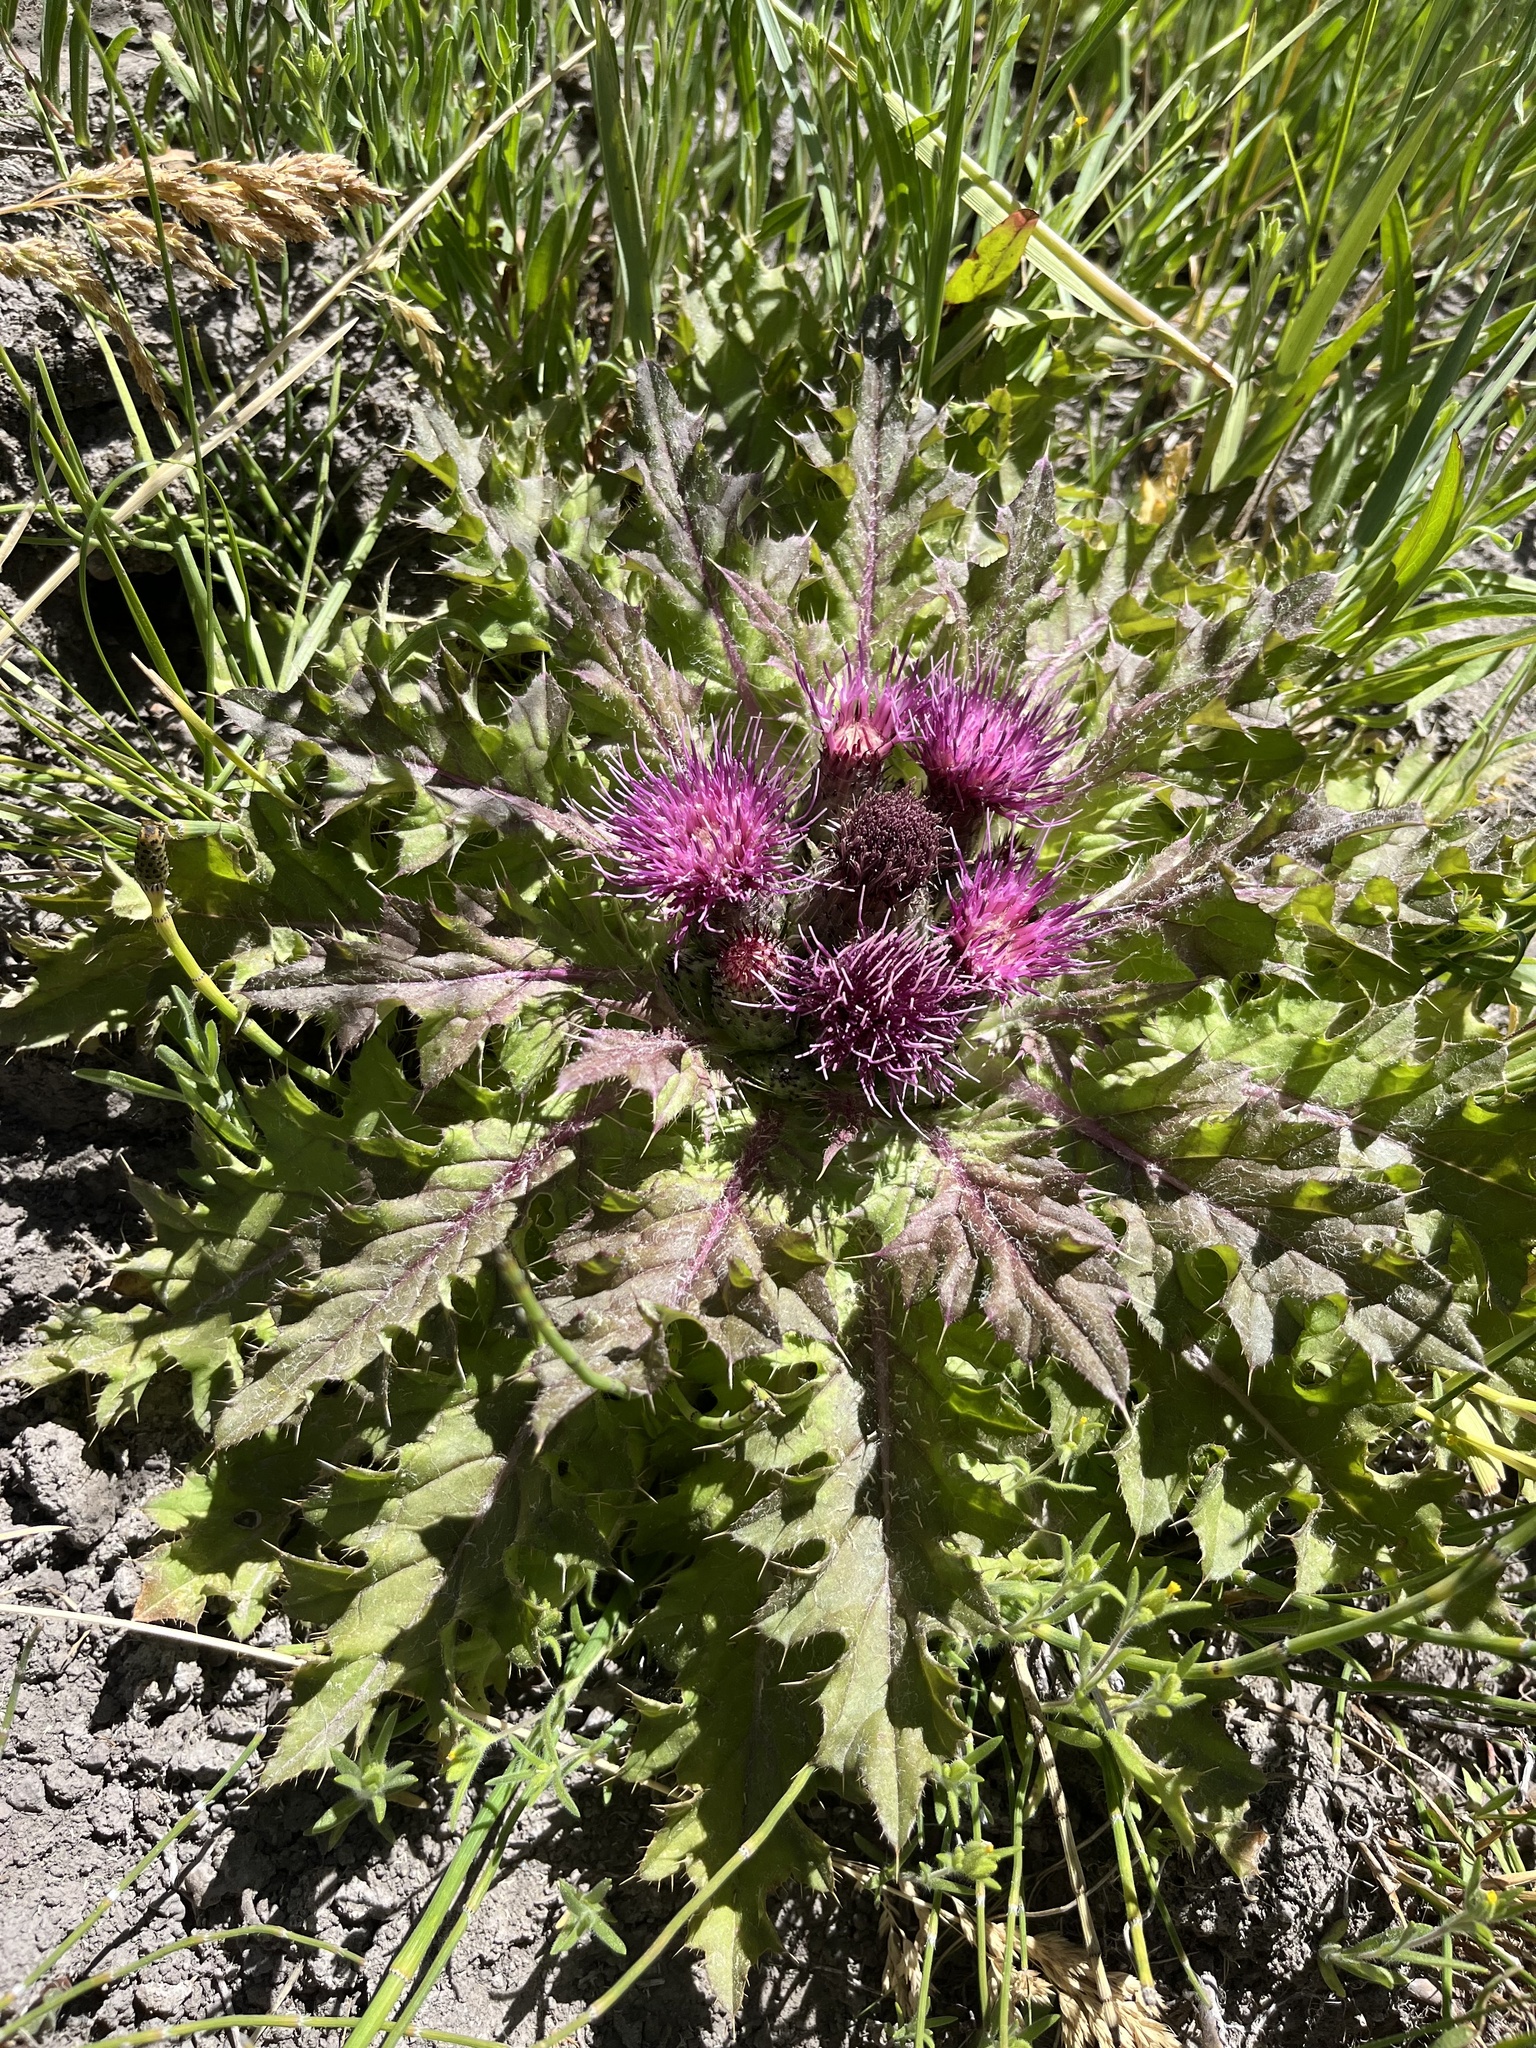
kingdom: Plantae
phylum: Tracheophyta
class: Magnoliopsida
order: Asterales
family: Asteraceae
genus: Cirsium
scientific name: Cirsium congdonii
